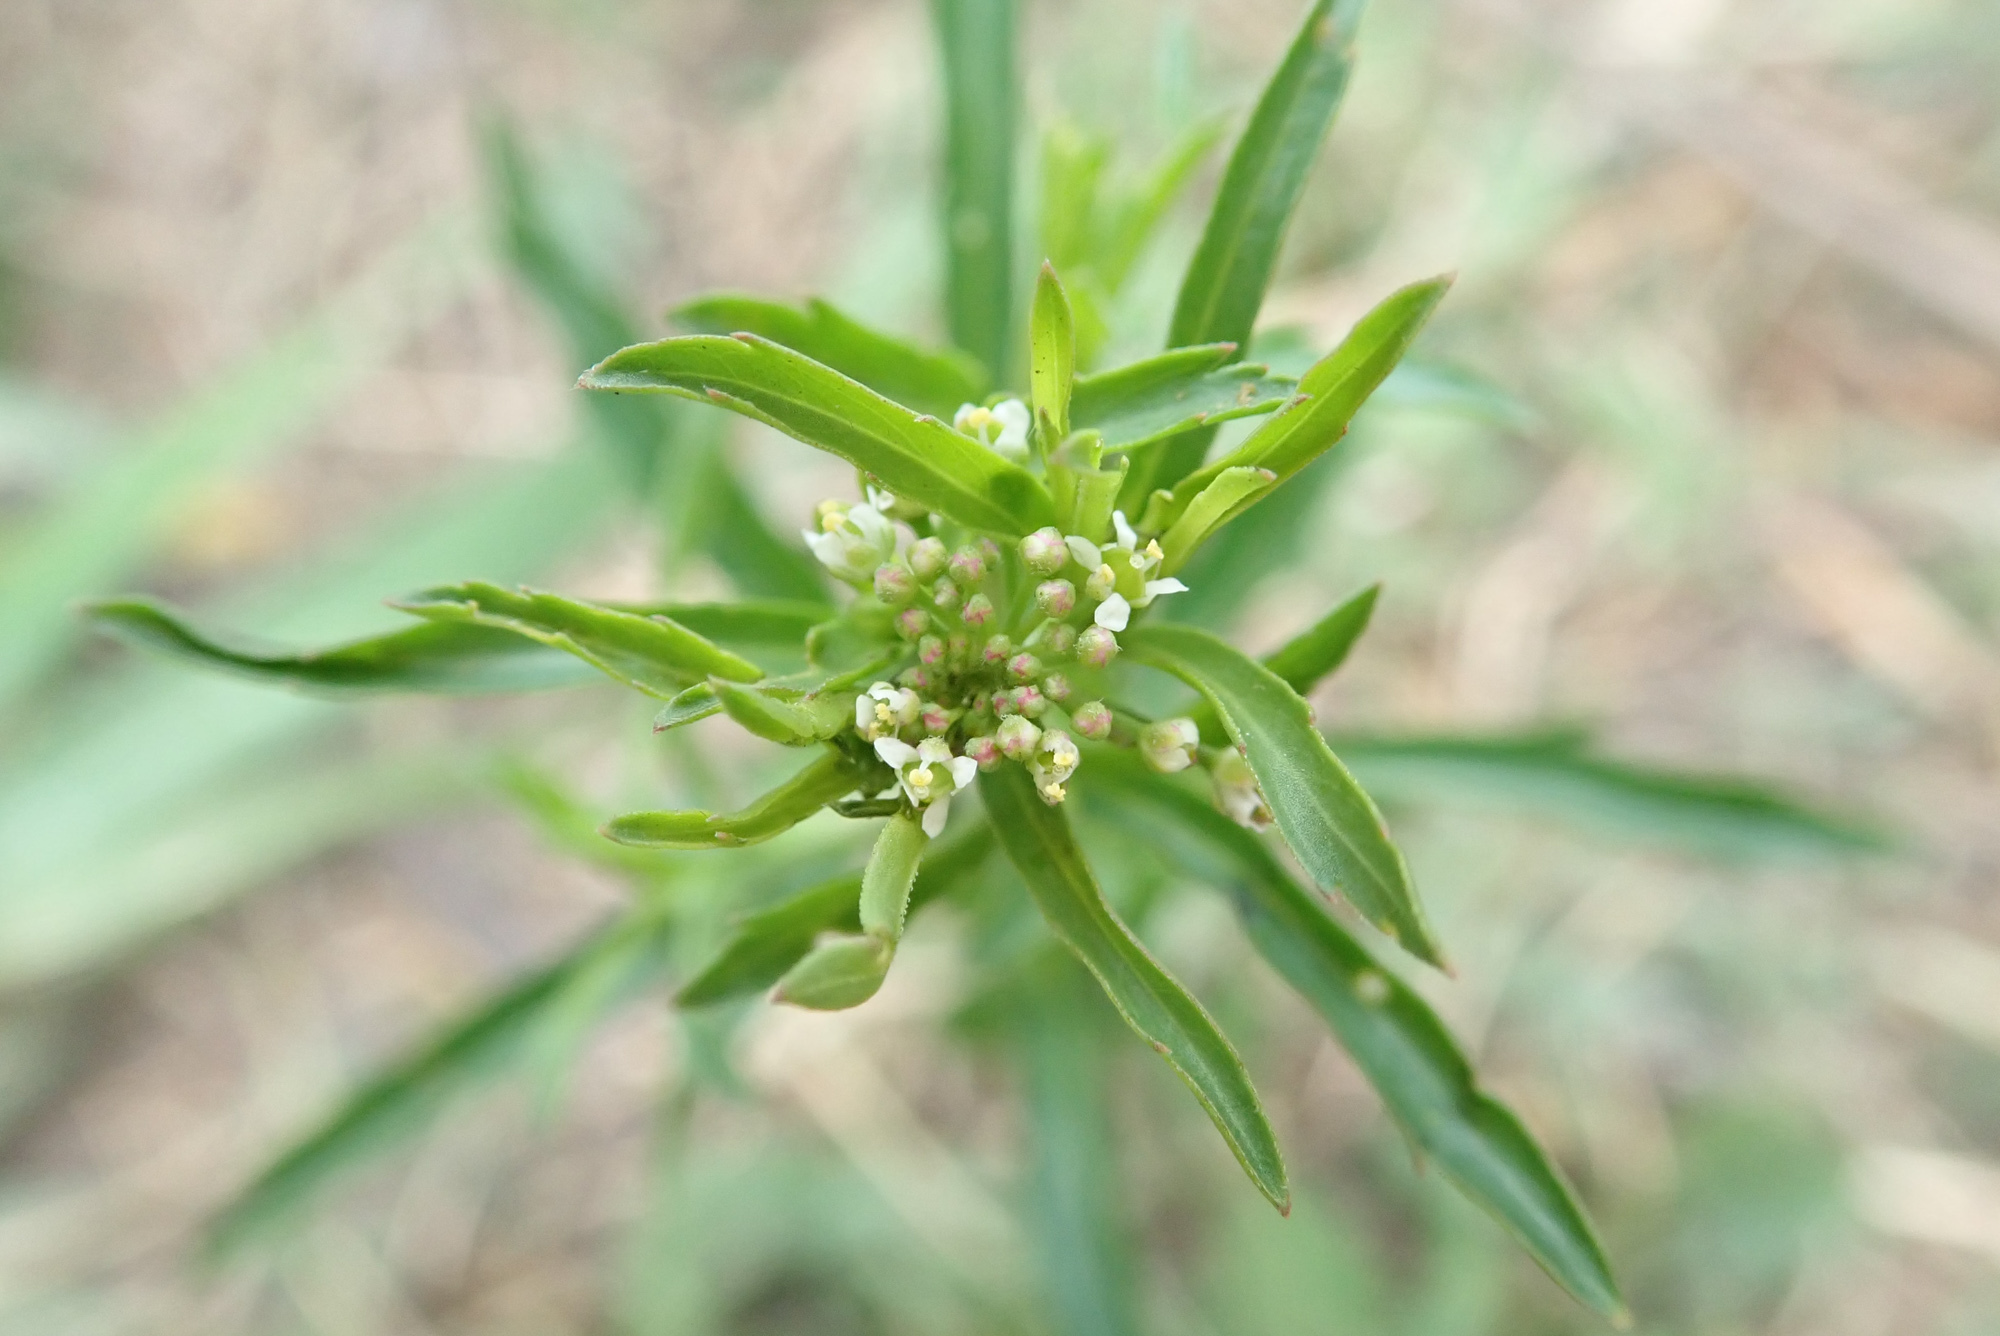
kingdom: Plantae
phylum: Tracheophyta
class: Magnoliopsida
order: Brassicales
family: Brassicaceae
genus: Thlaspi
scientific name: Thlaspi arvense
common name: Field pennycress
